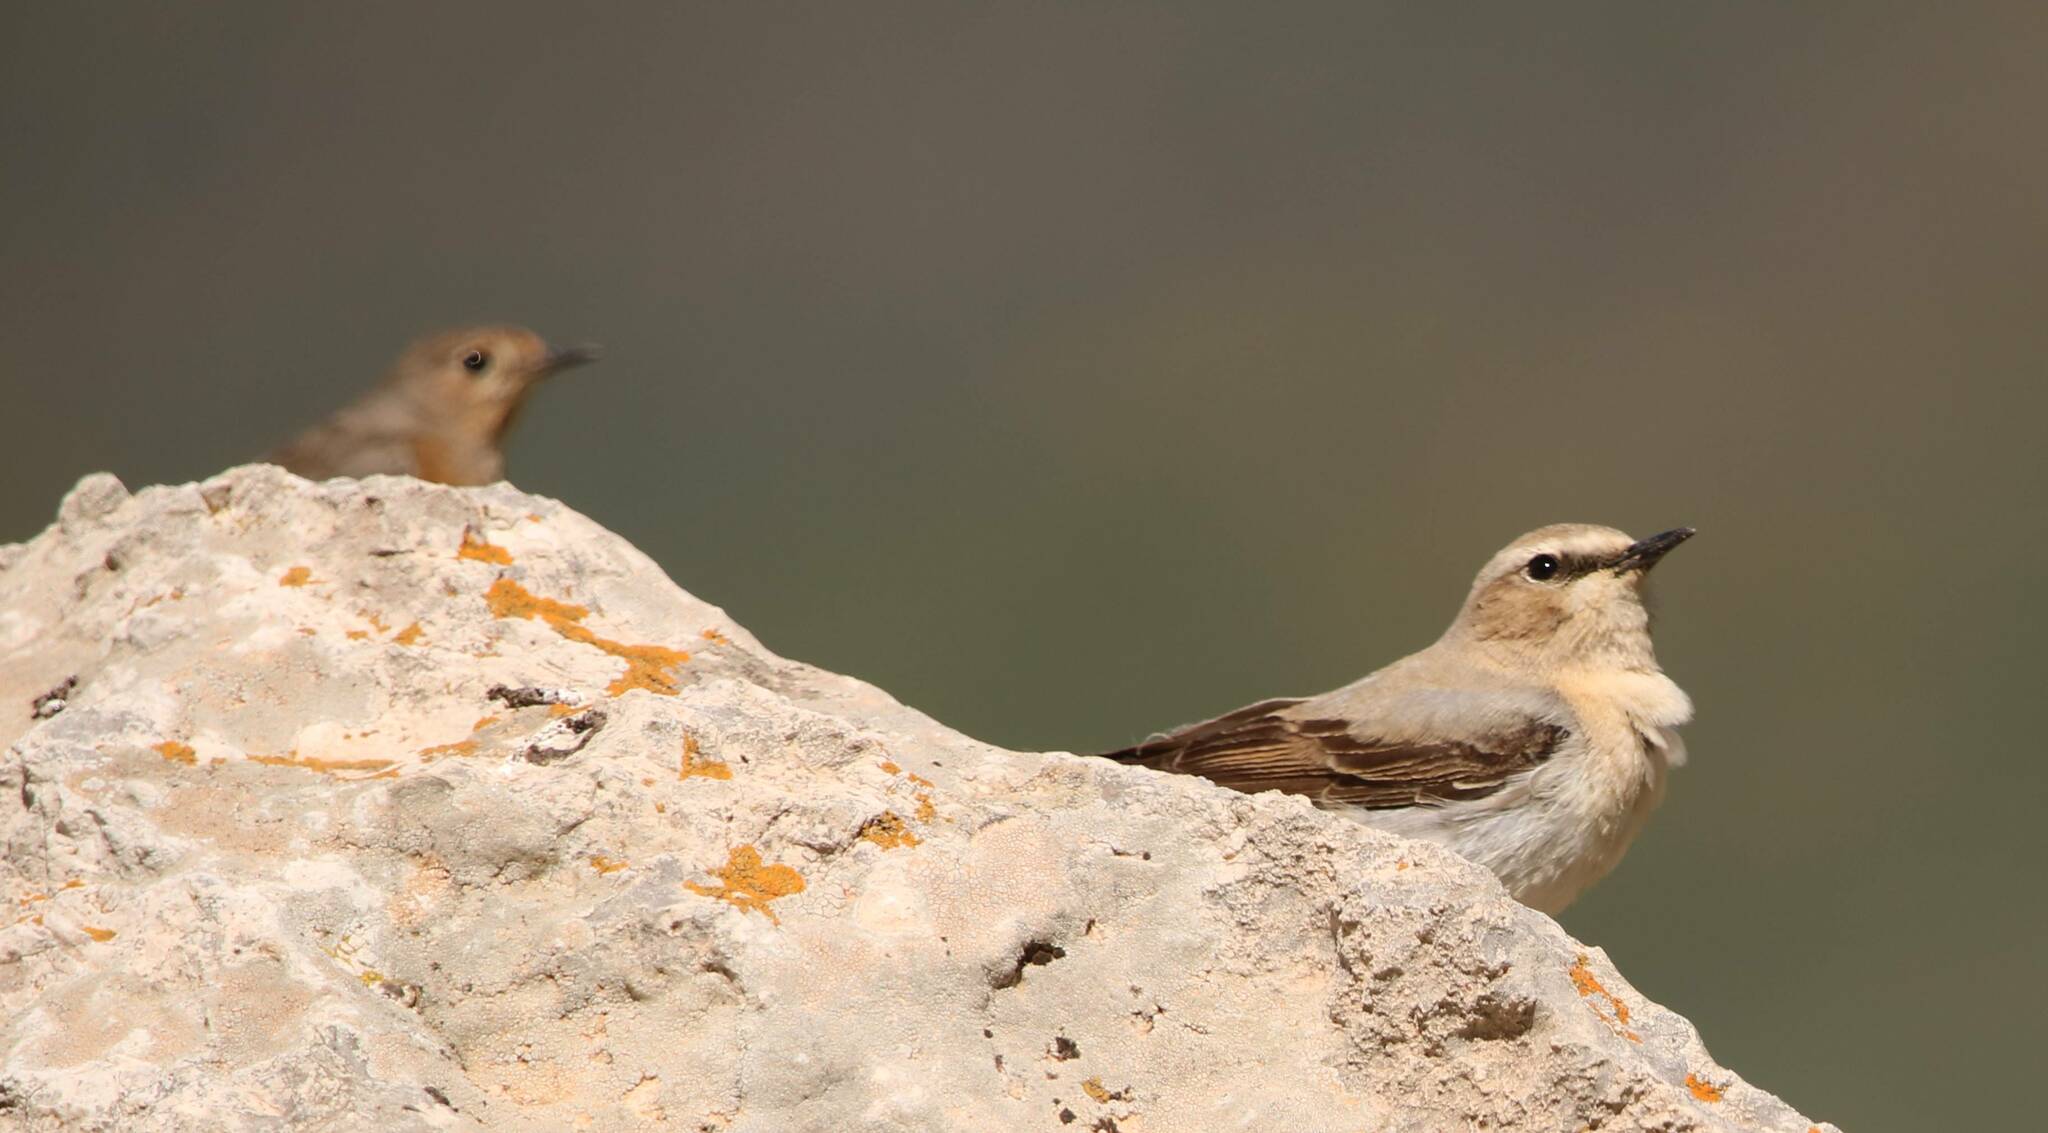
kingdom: Animalia
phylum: Chordata
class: Aves
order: Passeriformes
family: Muscicapidae
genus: Oenanthe
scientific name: Oenanthe oenanthe
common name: Northern wheatear
